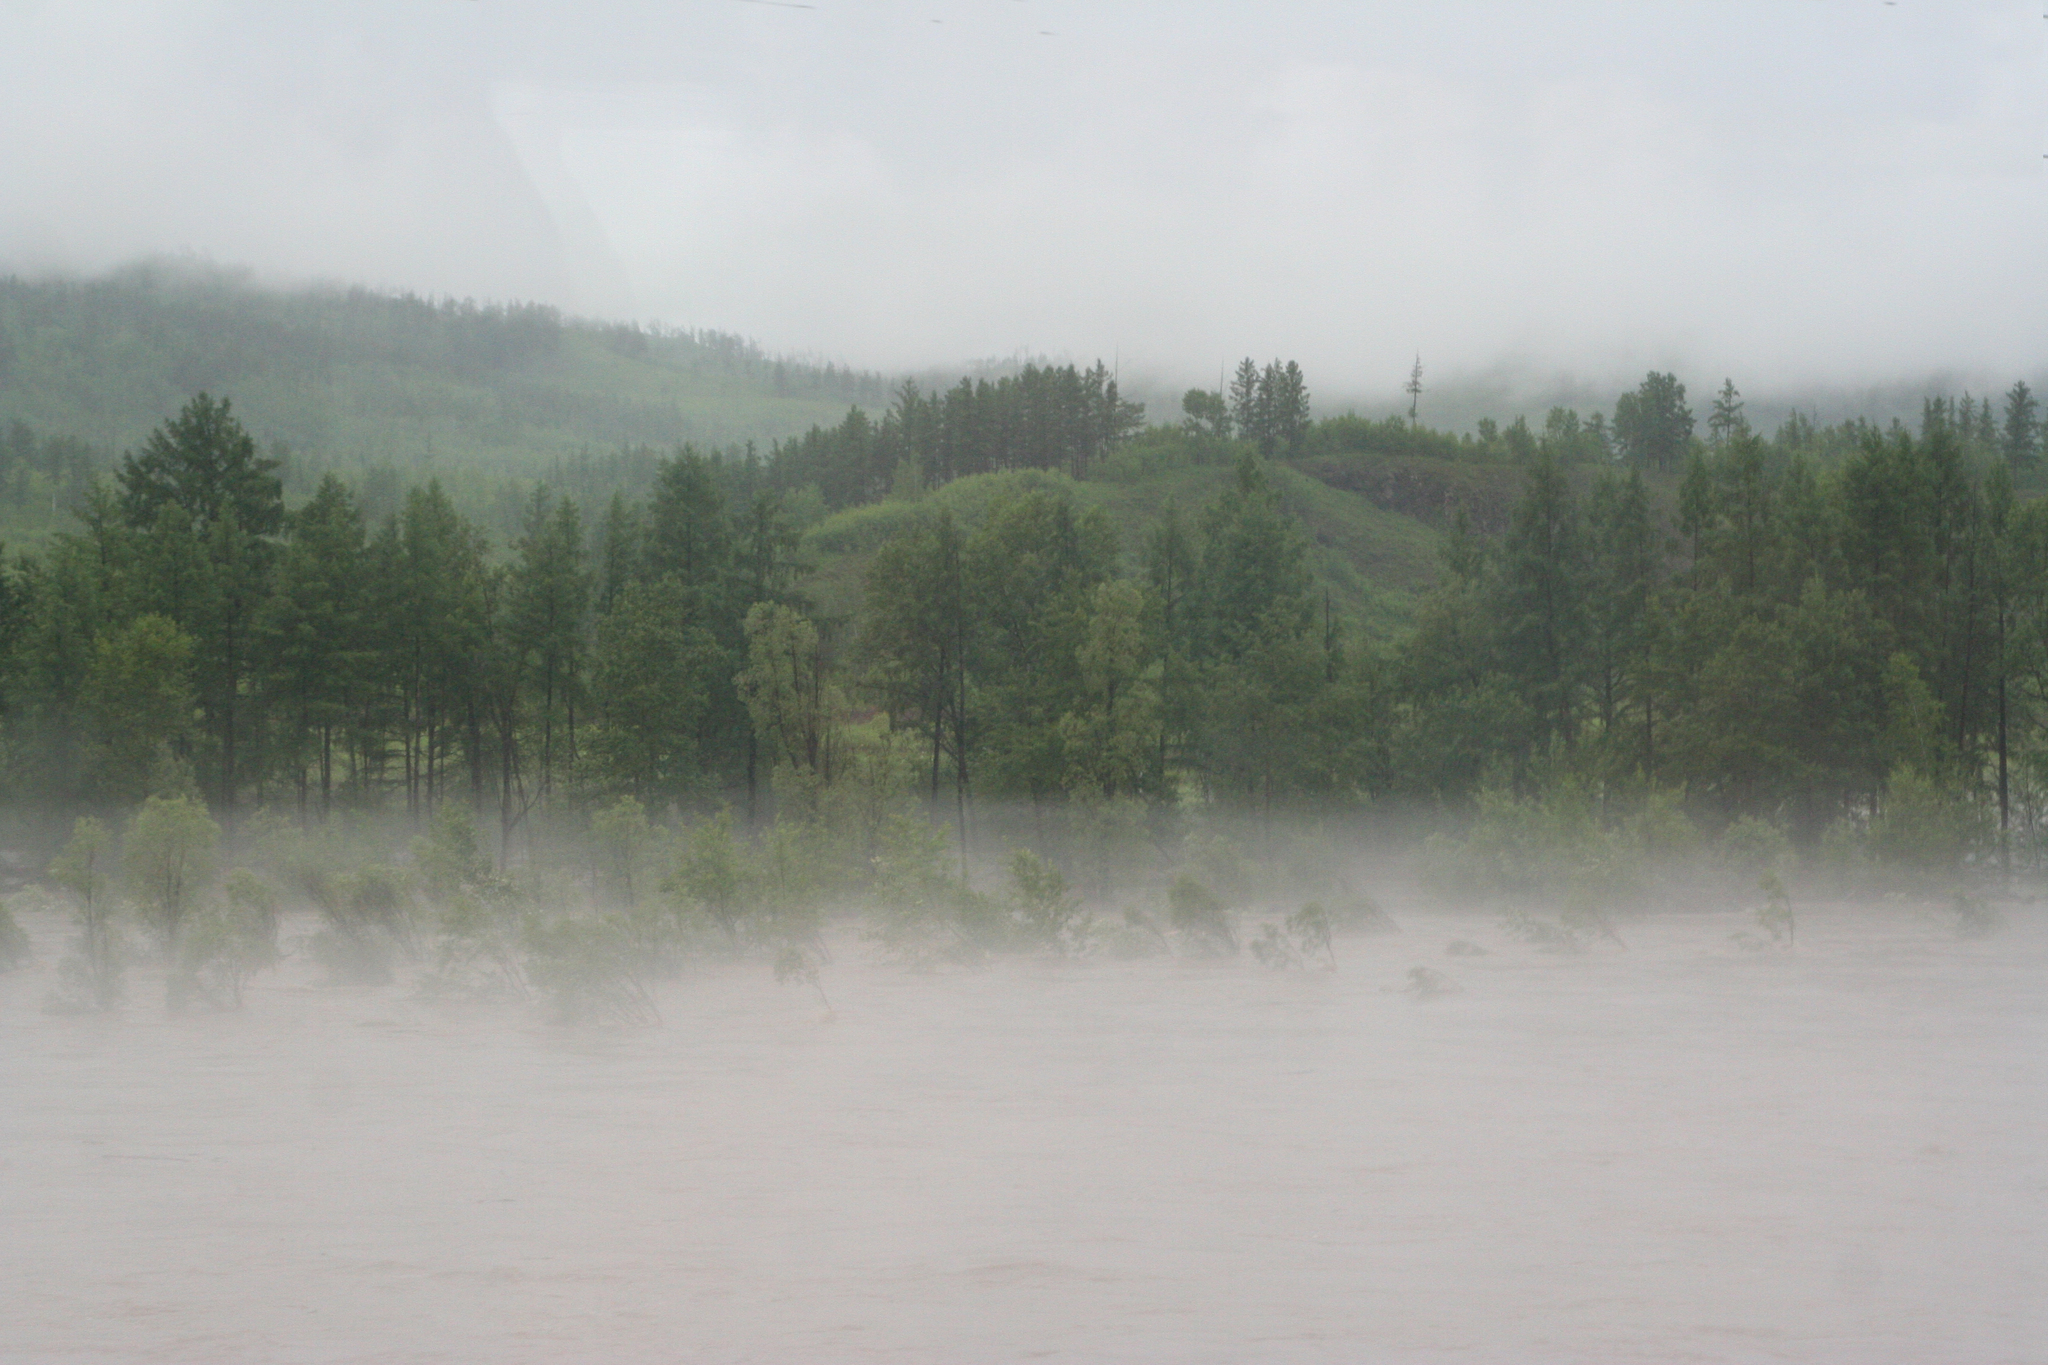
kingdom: Plantae
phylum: Tracheophyta
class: Pinopsida
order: Pinales
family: Pinaceae
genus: Larix
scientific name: Larix gmelinii
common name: Dahurian larch
